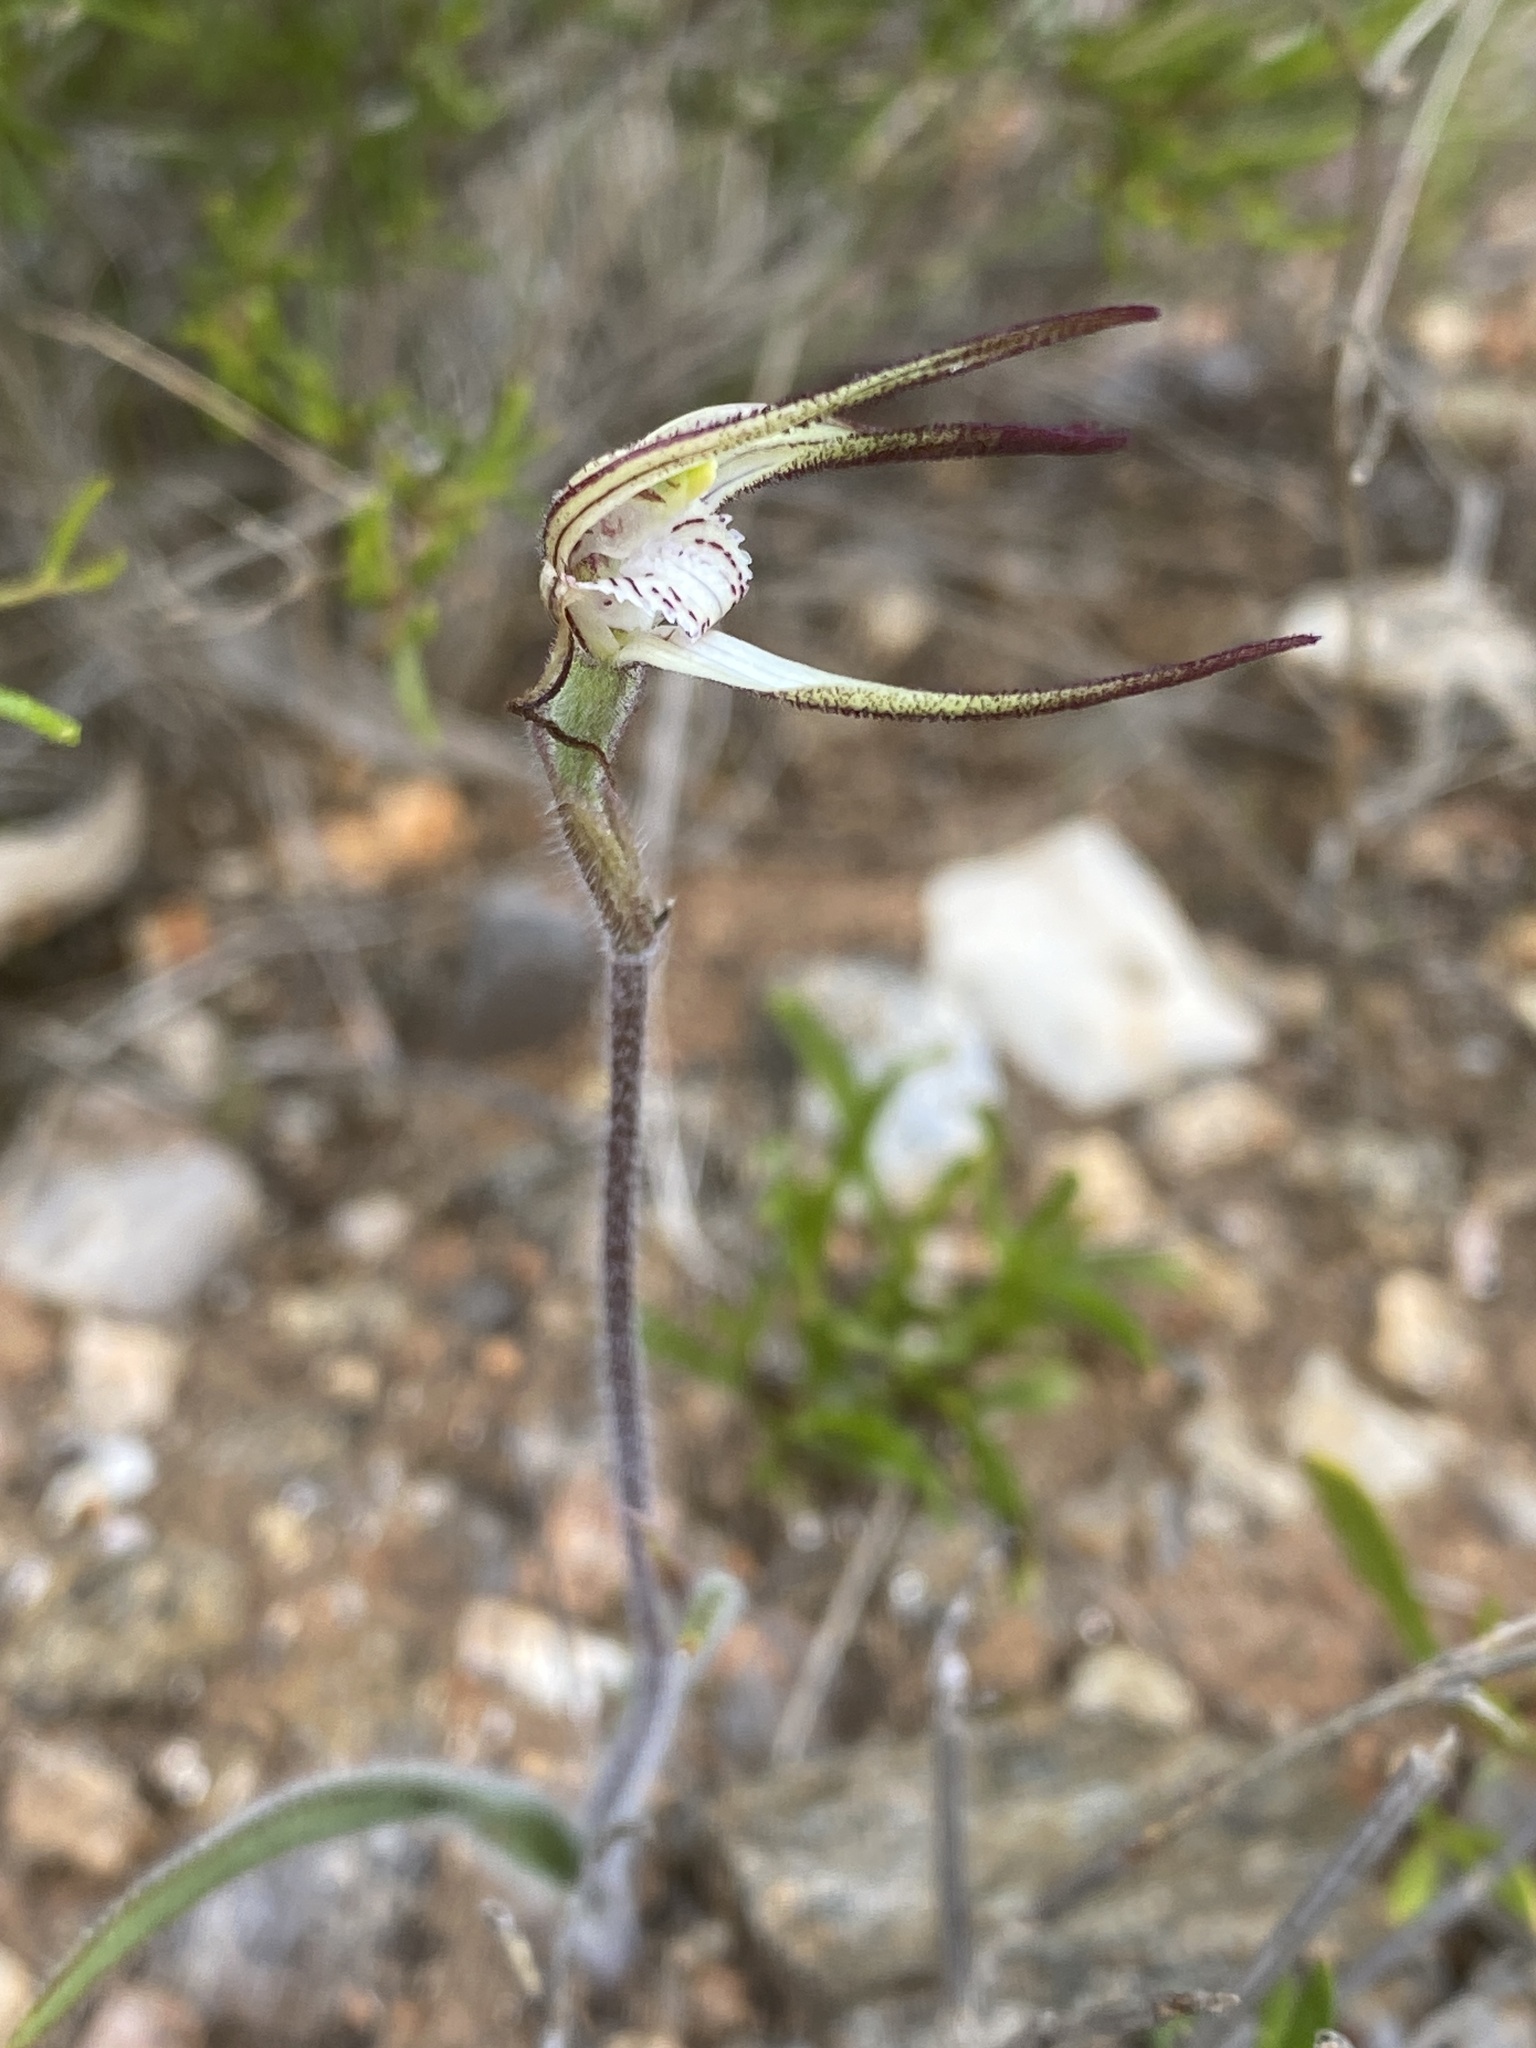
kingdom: Plantae
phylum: Tracheophyta
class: Liliopsida
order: Asparagales
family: Orchidaceae
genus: Caladenia
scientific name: Caladenia bicalliata
